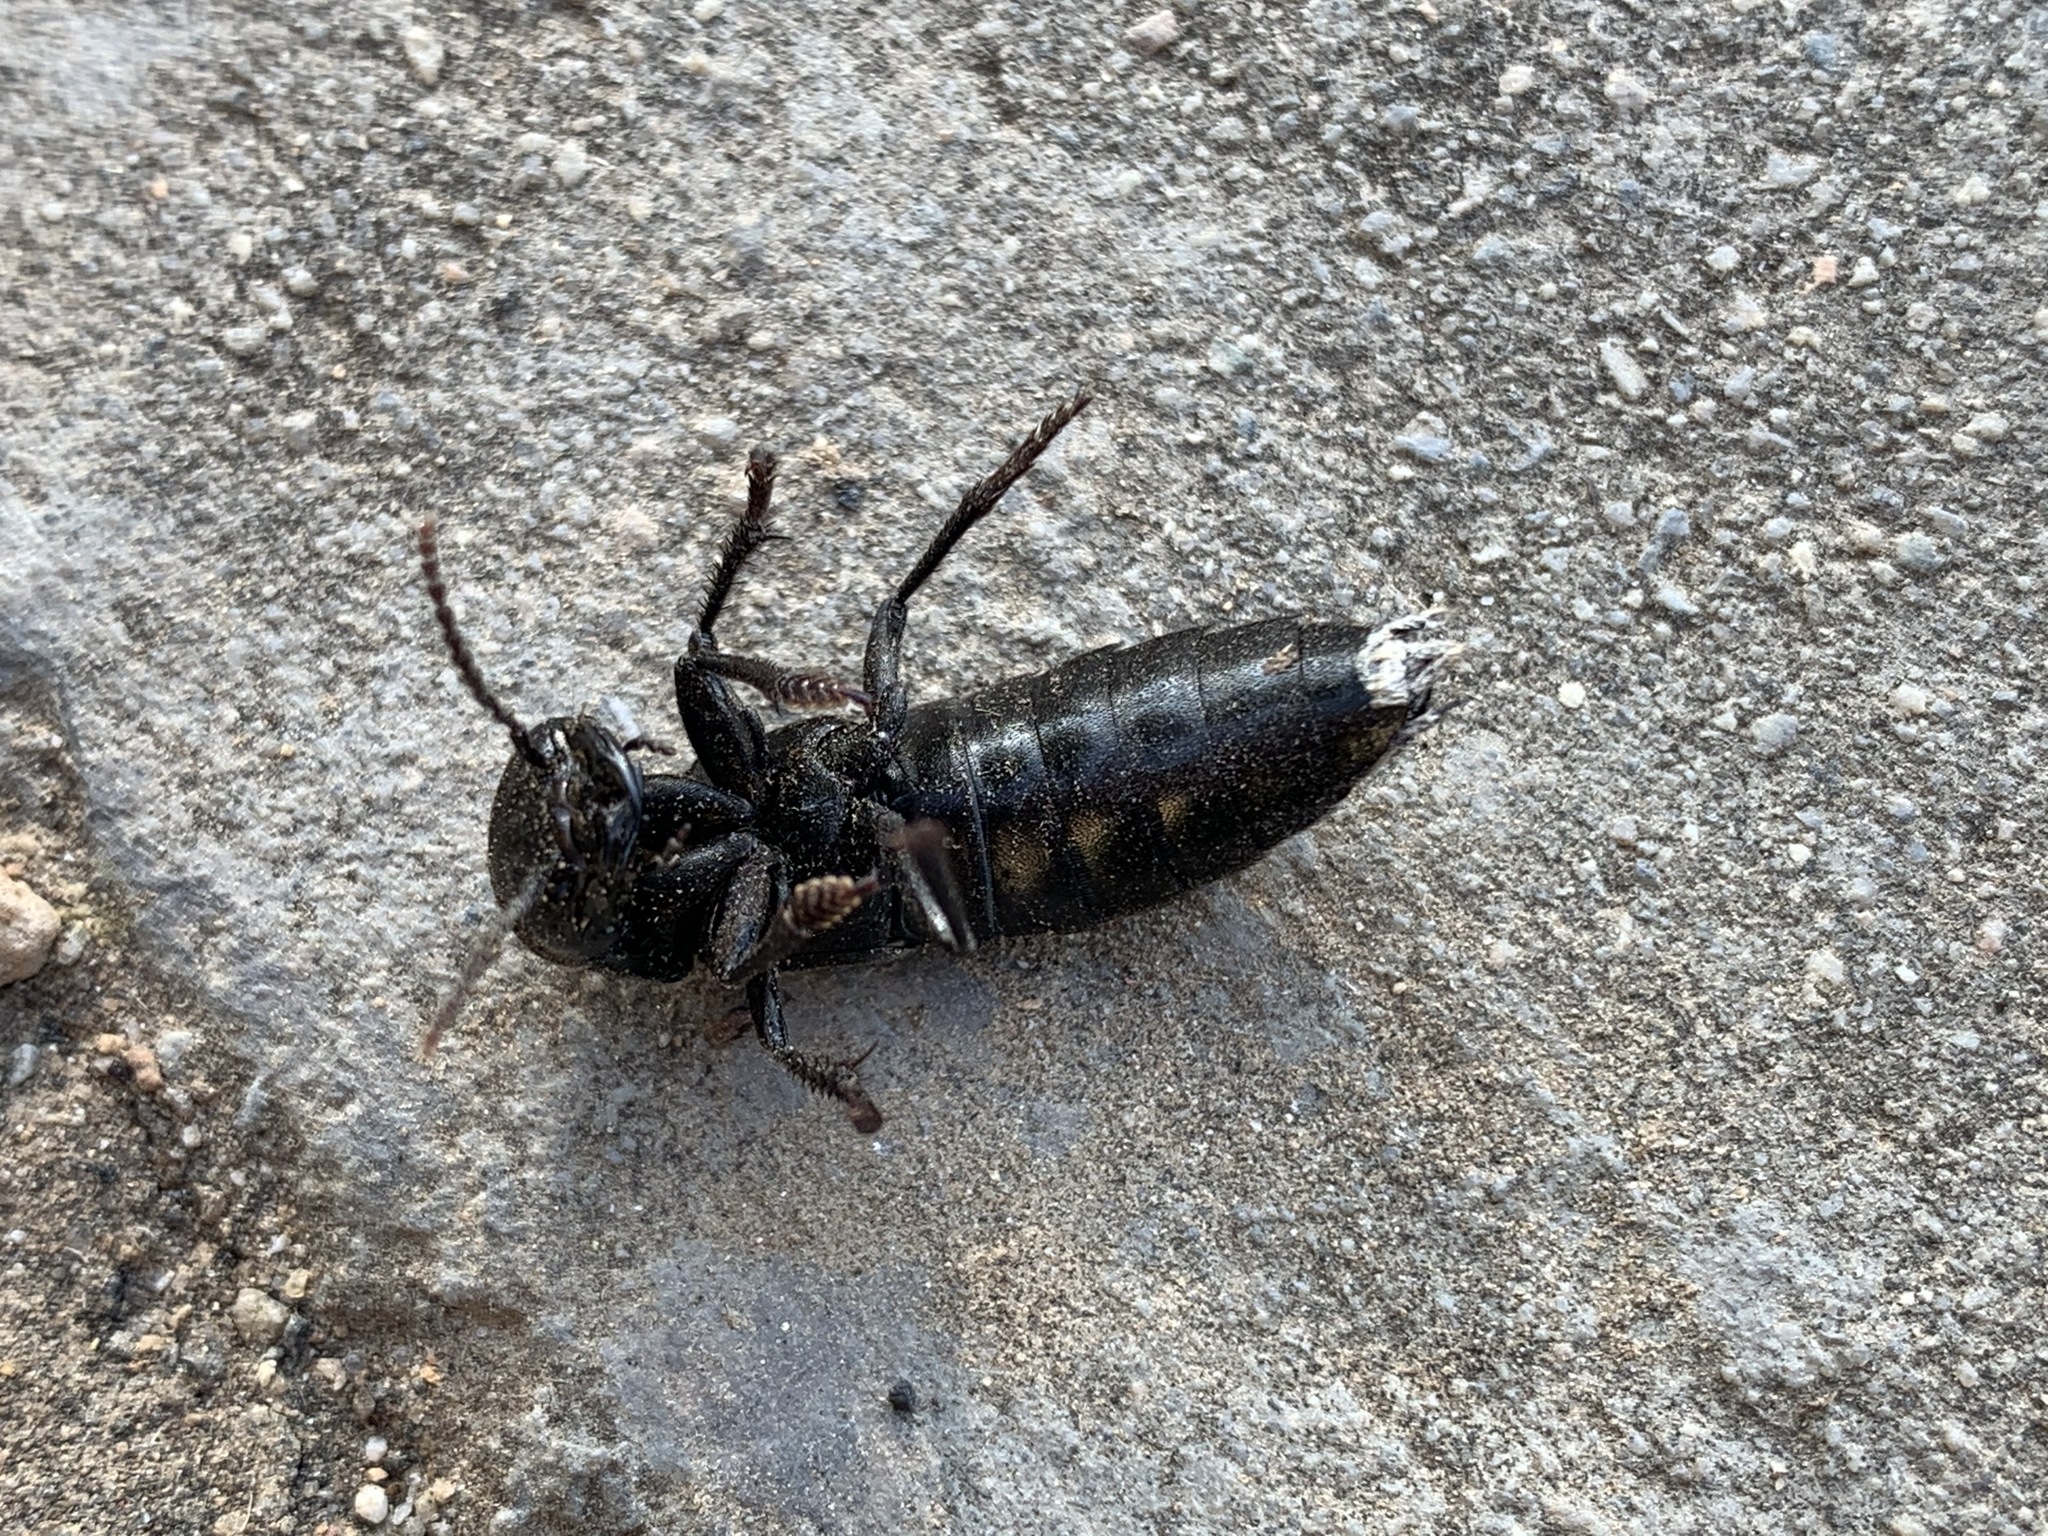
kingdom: Animalia
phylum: Arthropoda
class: Insecta
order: Coleoptera
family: Staphylinidae
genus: Ocypus
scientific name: Ocypus olens
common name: Devil's coach-horse
